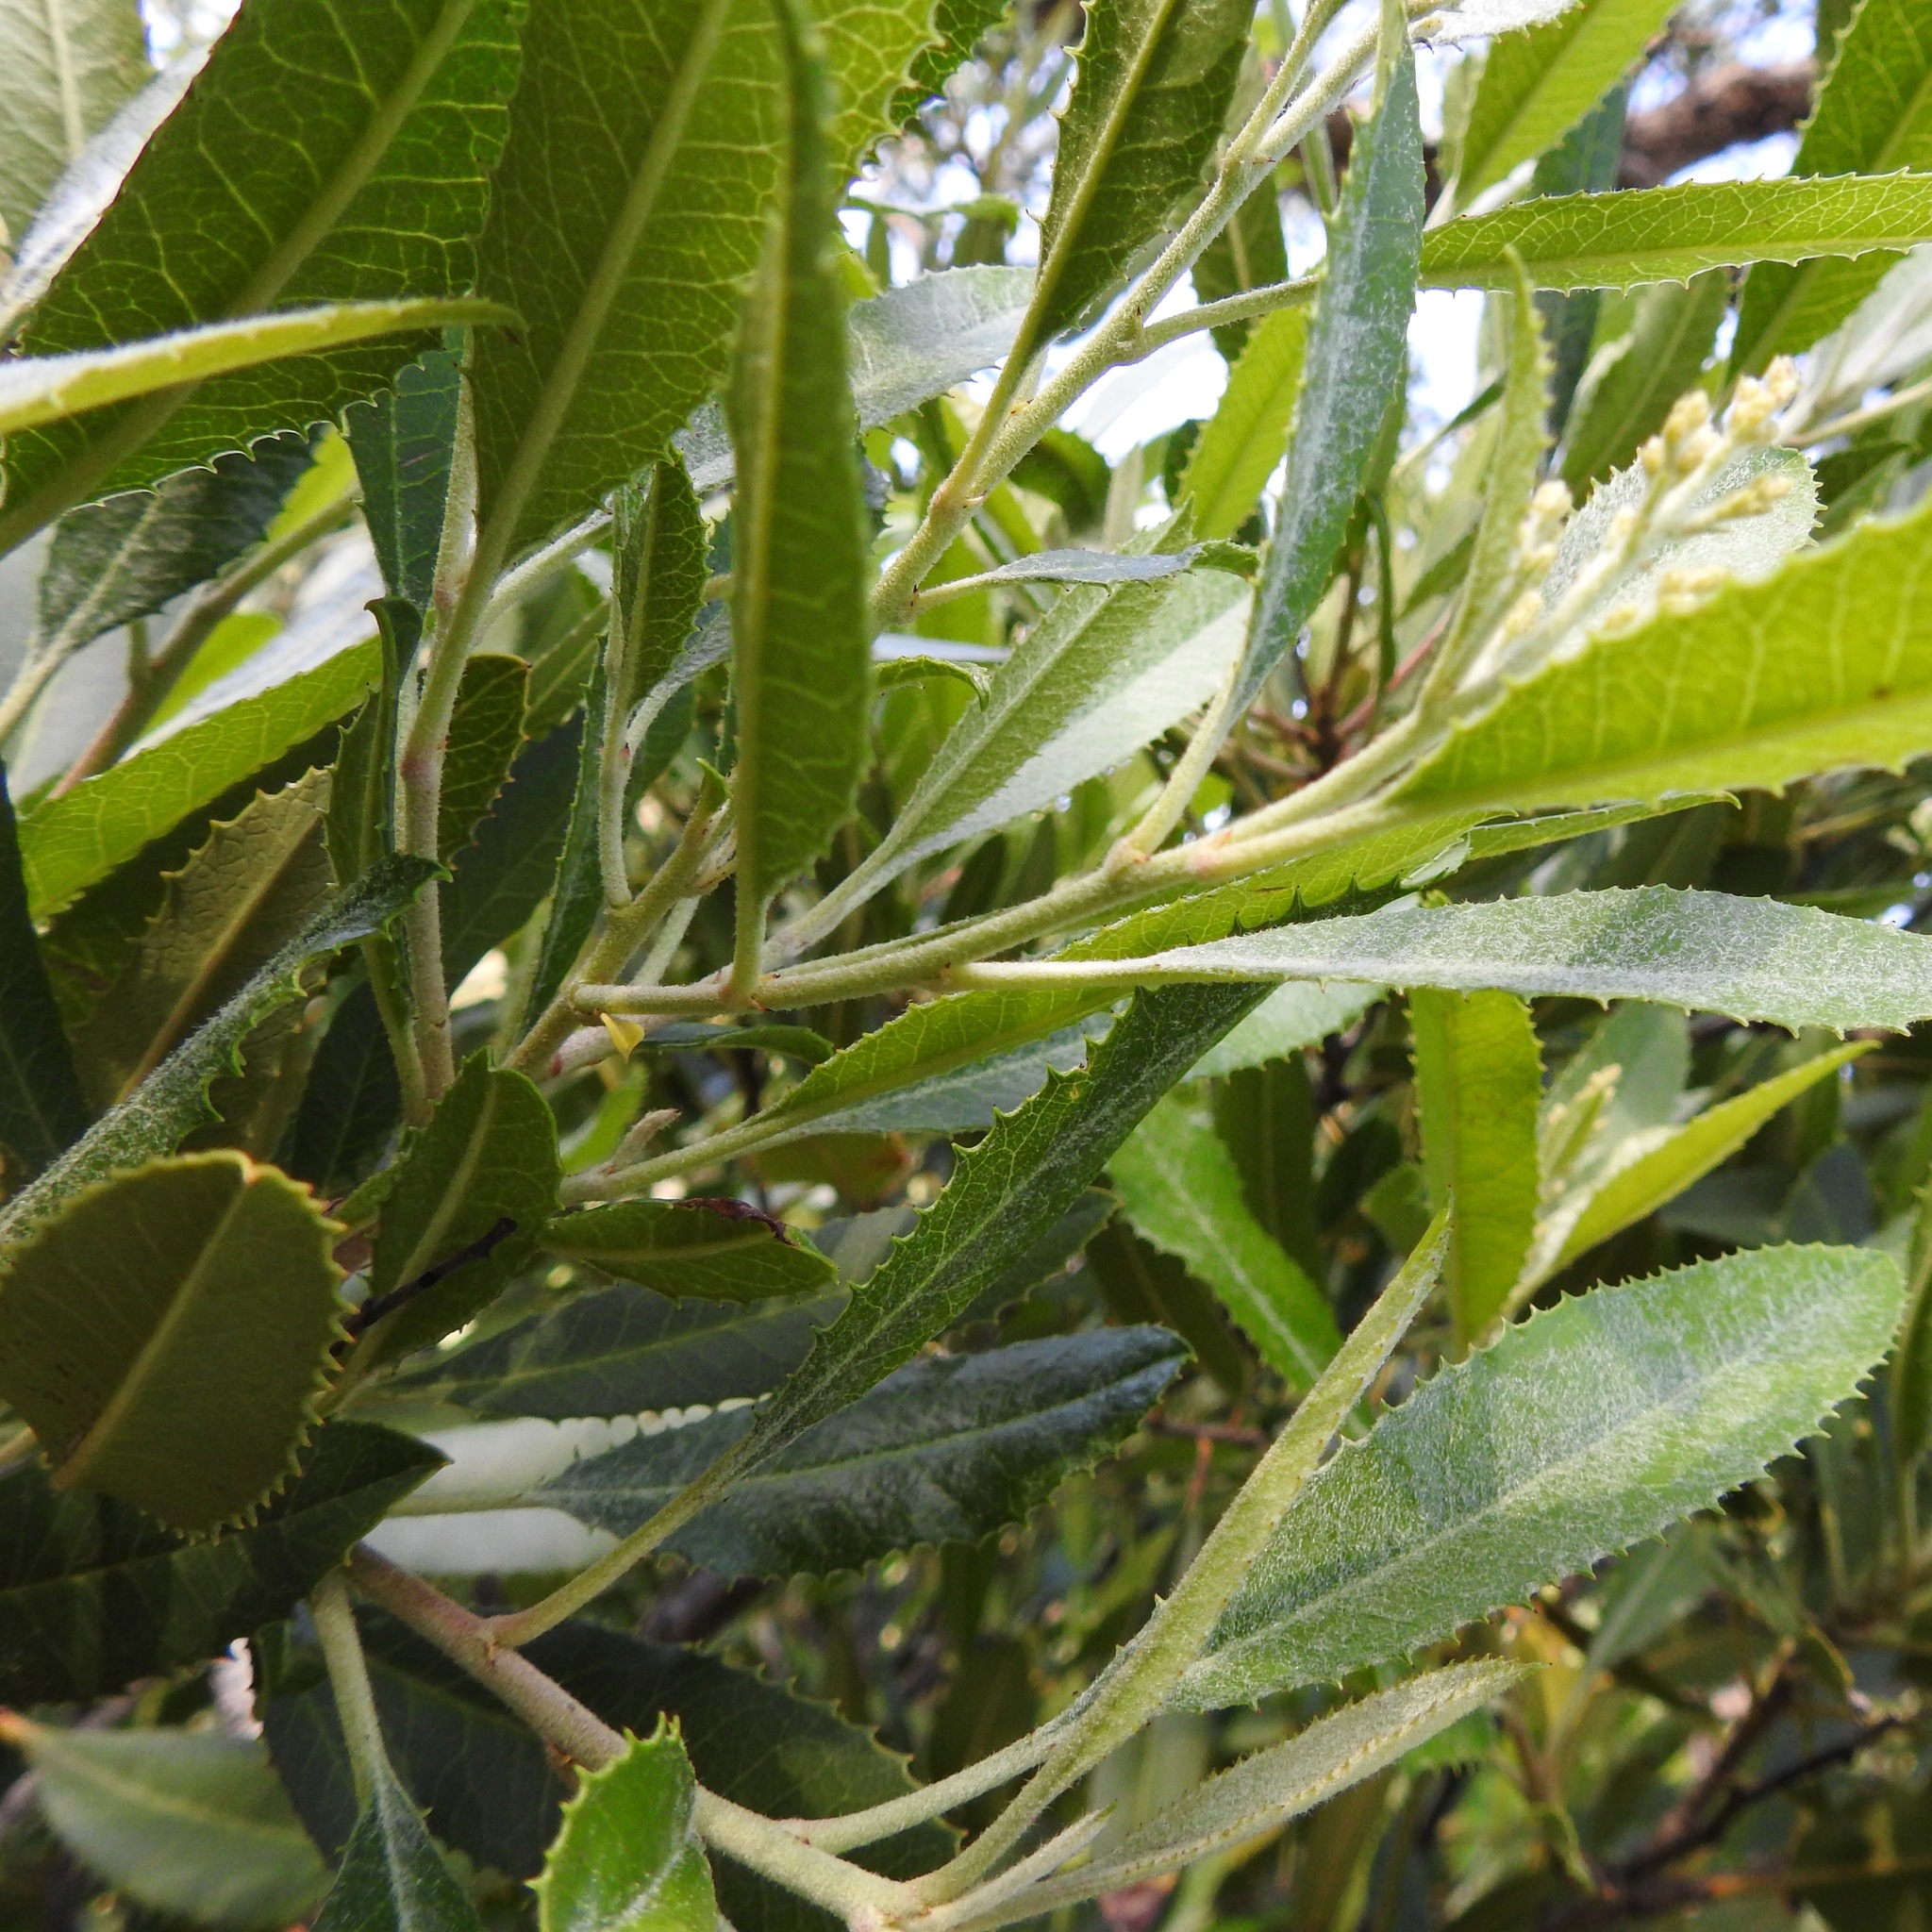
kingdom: Plantae
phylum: Tracheophyta
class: Magnoliopsida
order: Rosales
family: Rosaceae
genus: Heteromeles
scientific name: Heteromeles arbutifolia
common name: California-holly
